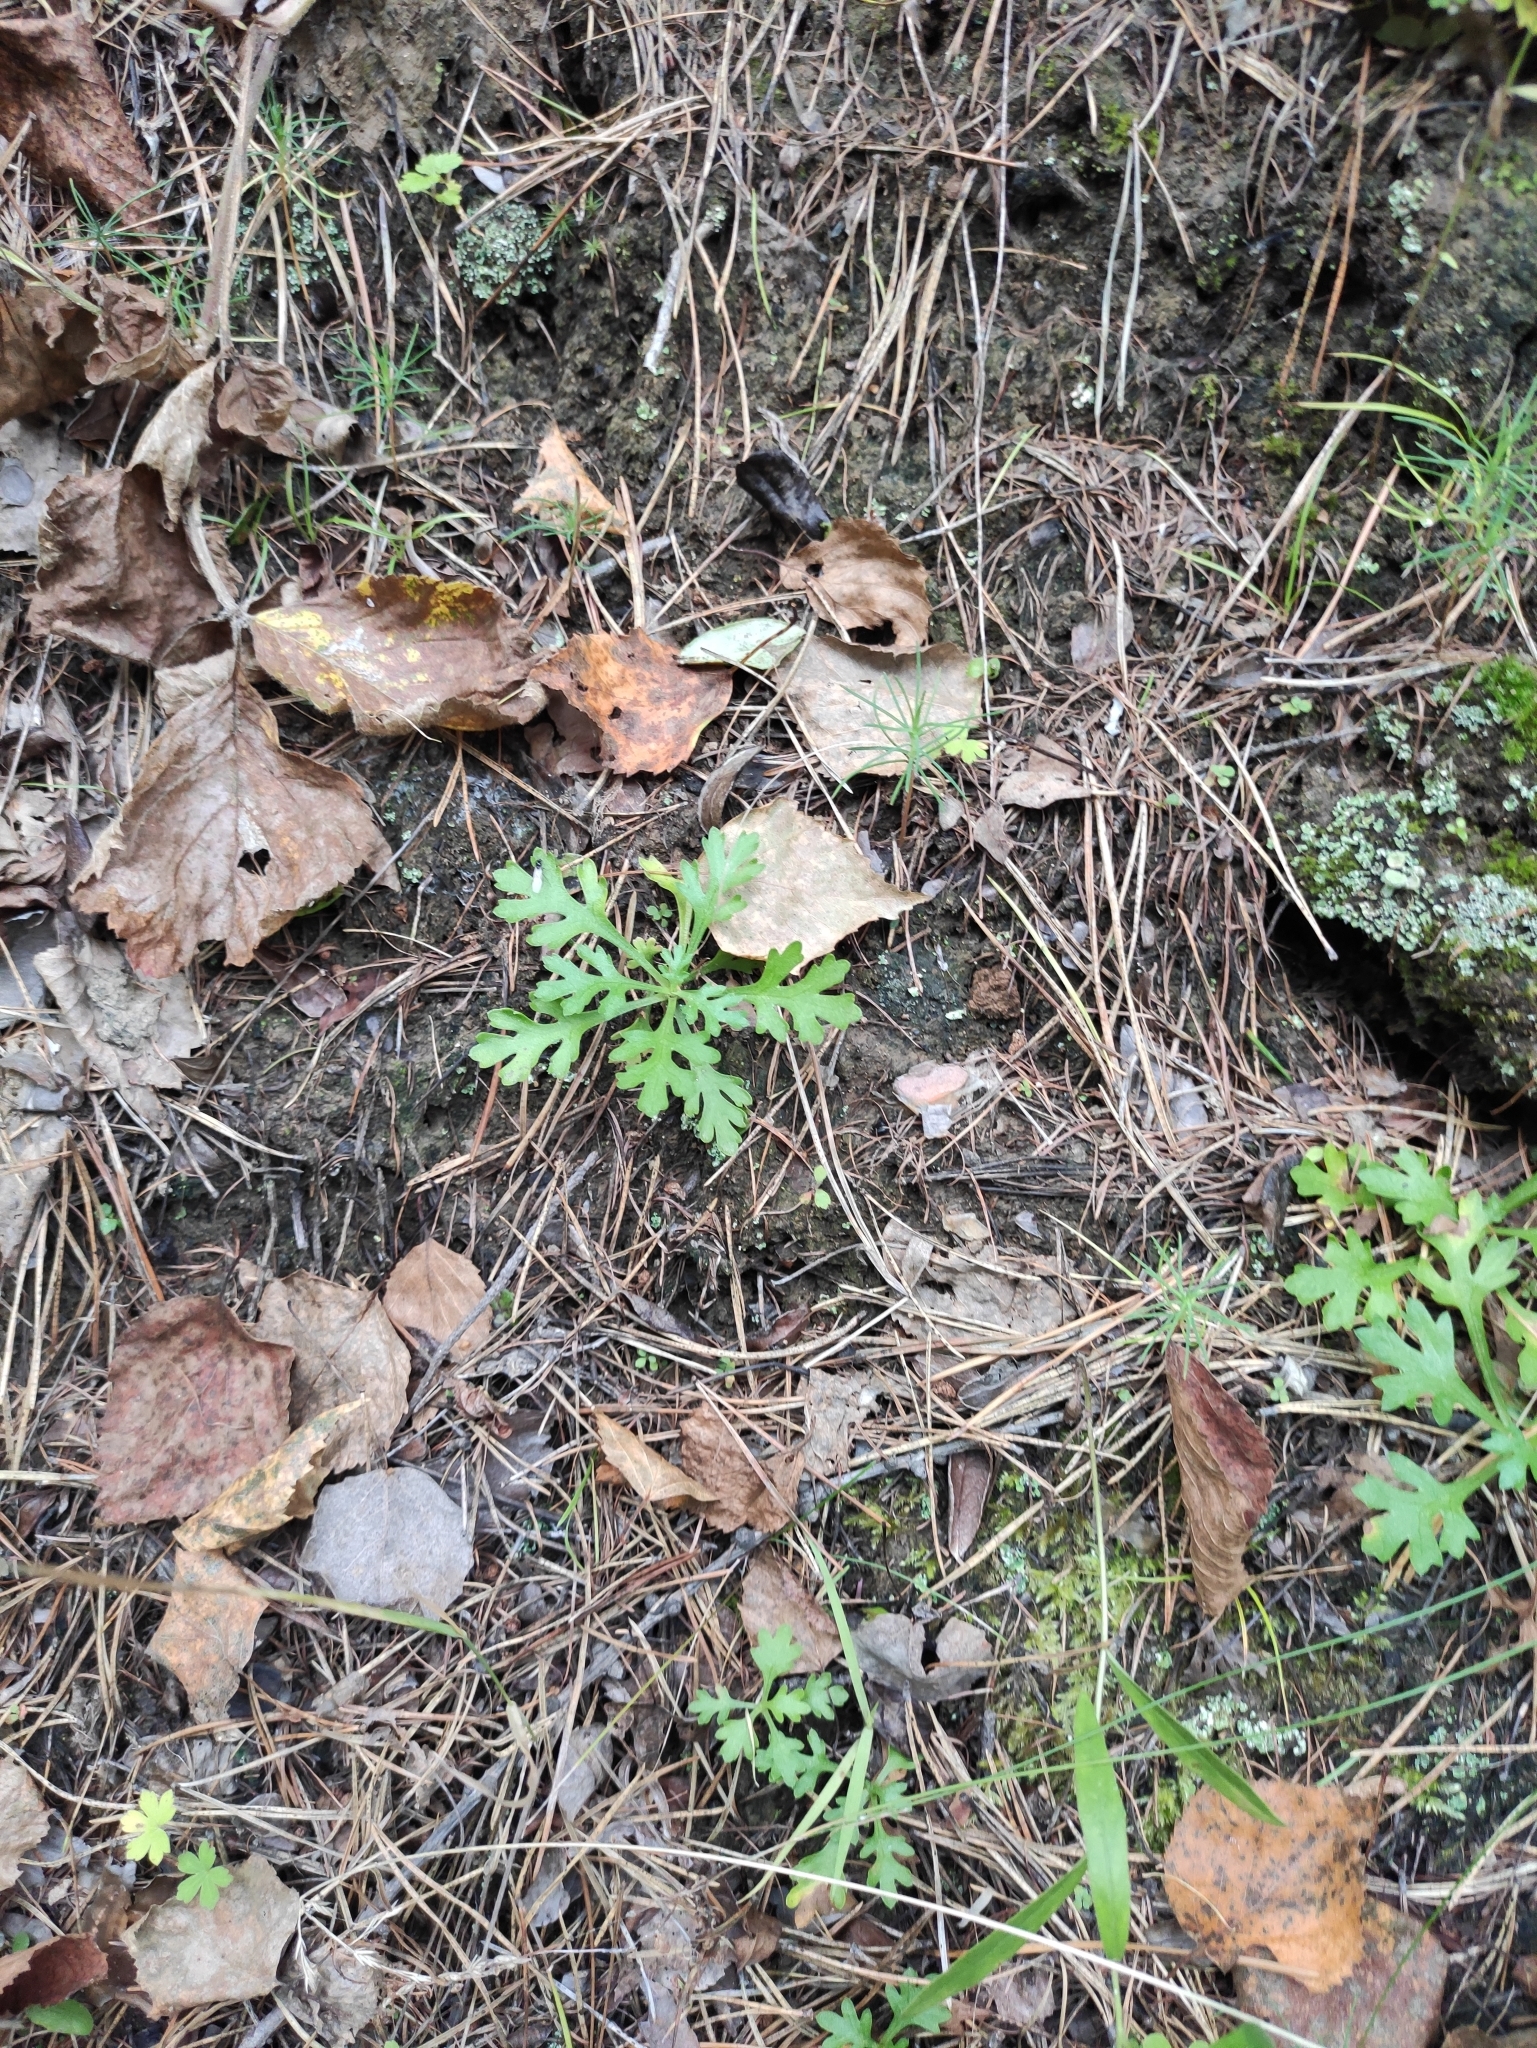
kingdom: Plantae
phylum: Tracheophyta
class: Magnoliopsida
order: Asterales
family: Asteraceae
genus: Chrysanthemum
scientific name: Chrysanthemum zawadzkii
